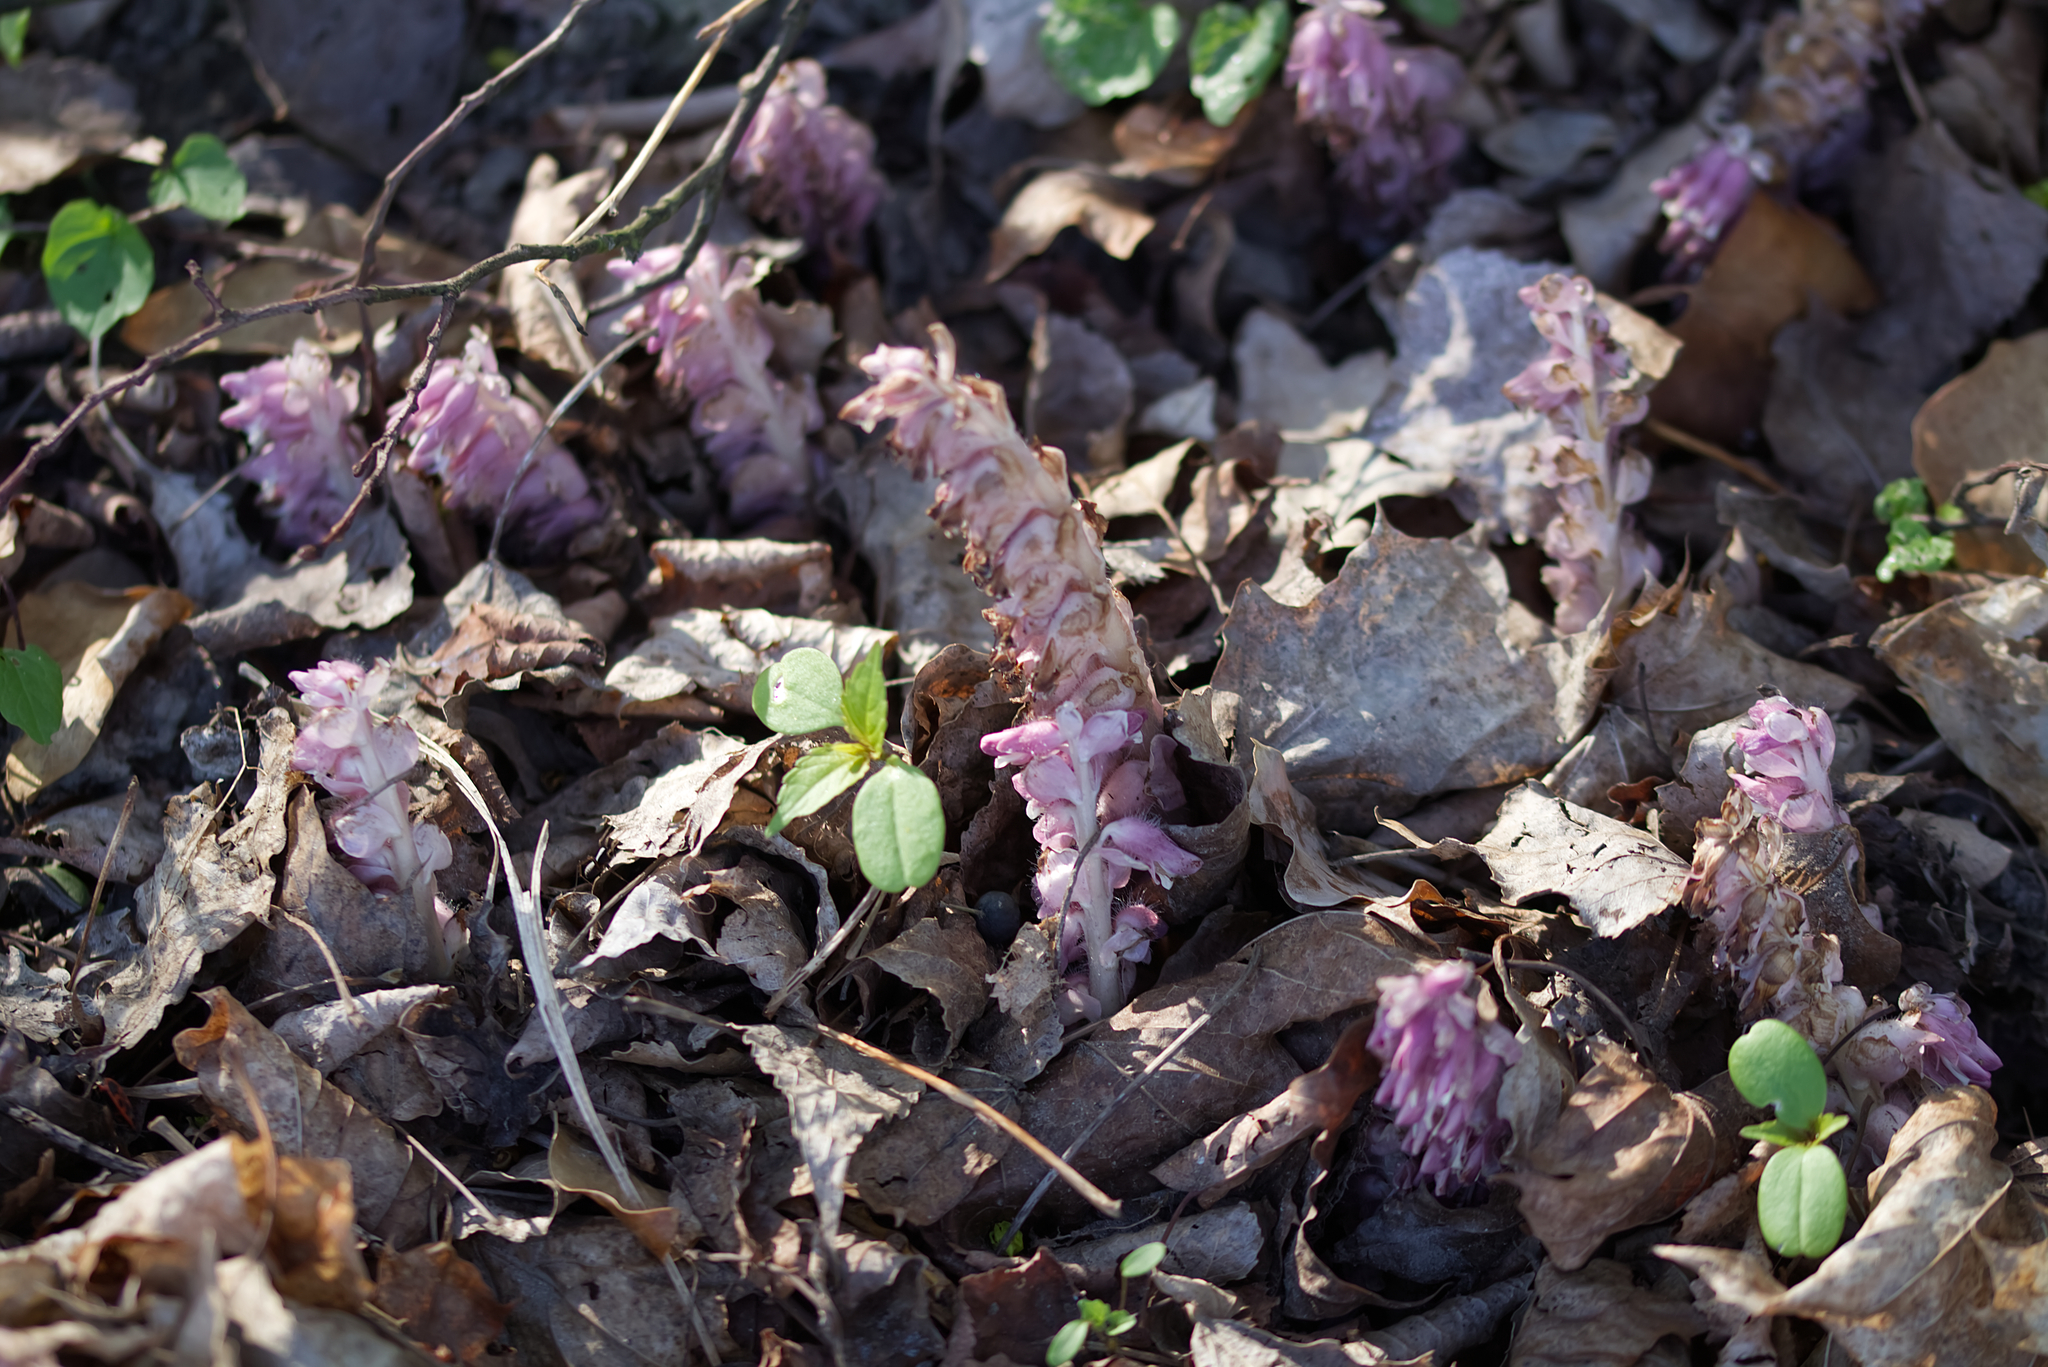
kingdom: Plantae
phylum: Tracheophyta
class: Magnoliopsida
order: Lamiales
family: Orobanchaceae
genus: Lathraea
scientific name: Lathraea squamaria
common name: Toothwort
